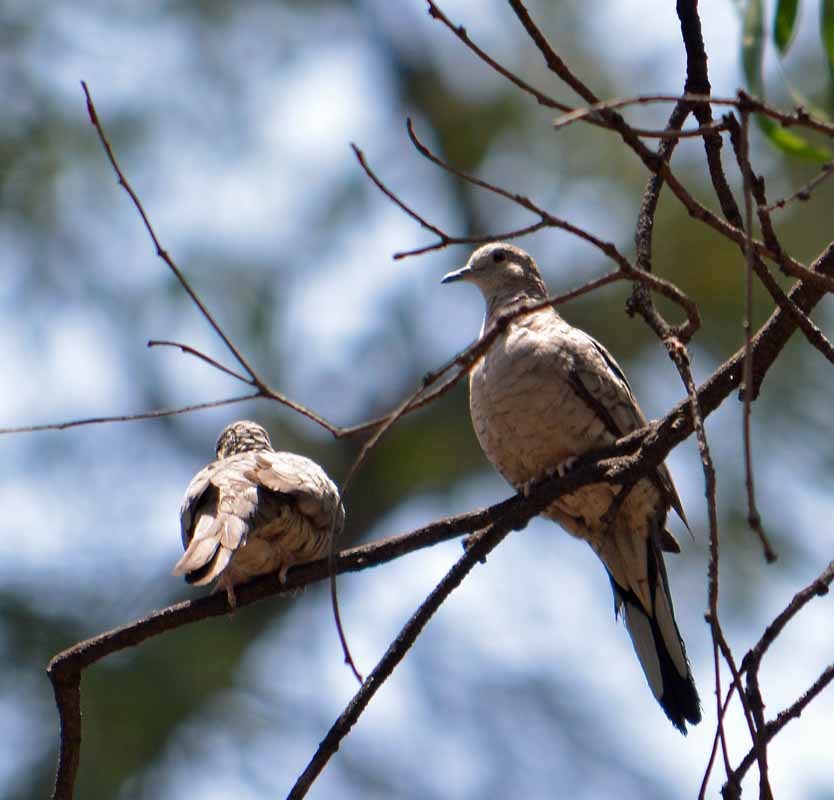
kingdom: Animalia
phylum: Chordata
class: Aves
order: Columbiformes
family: Columbidae
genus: Columbina
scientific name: Columbina inca
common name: Inca dove
